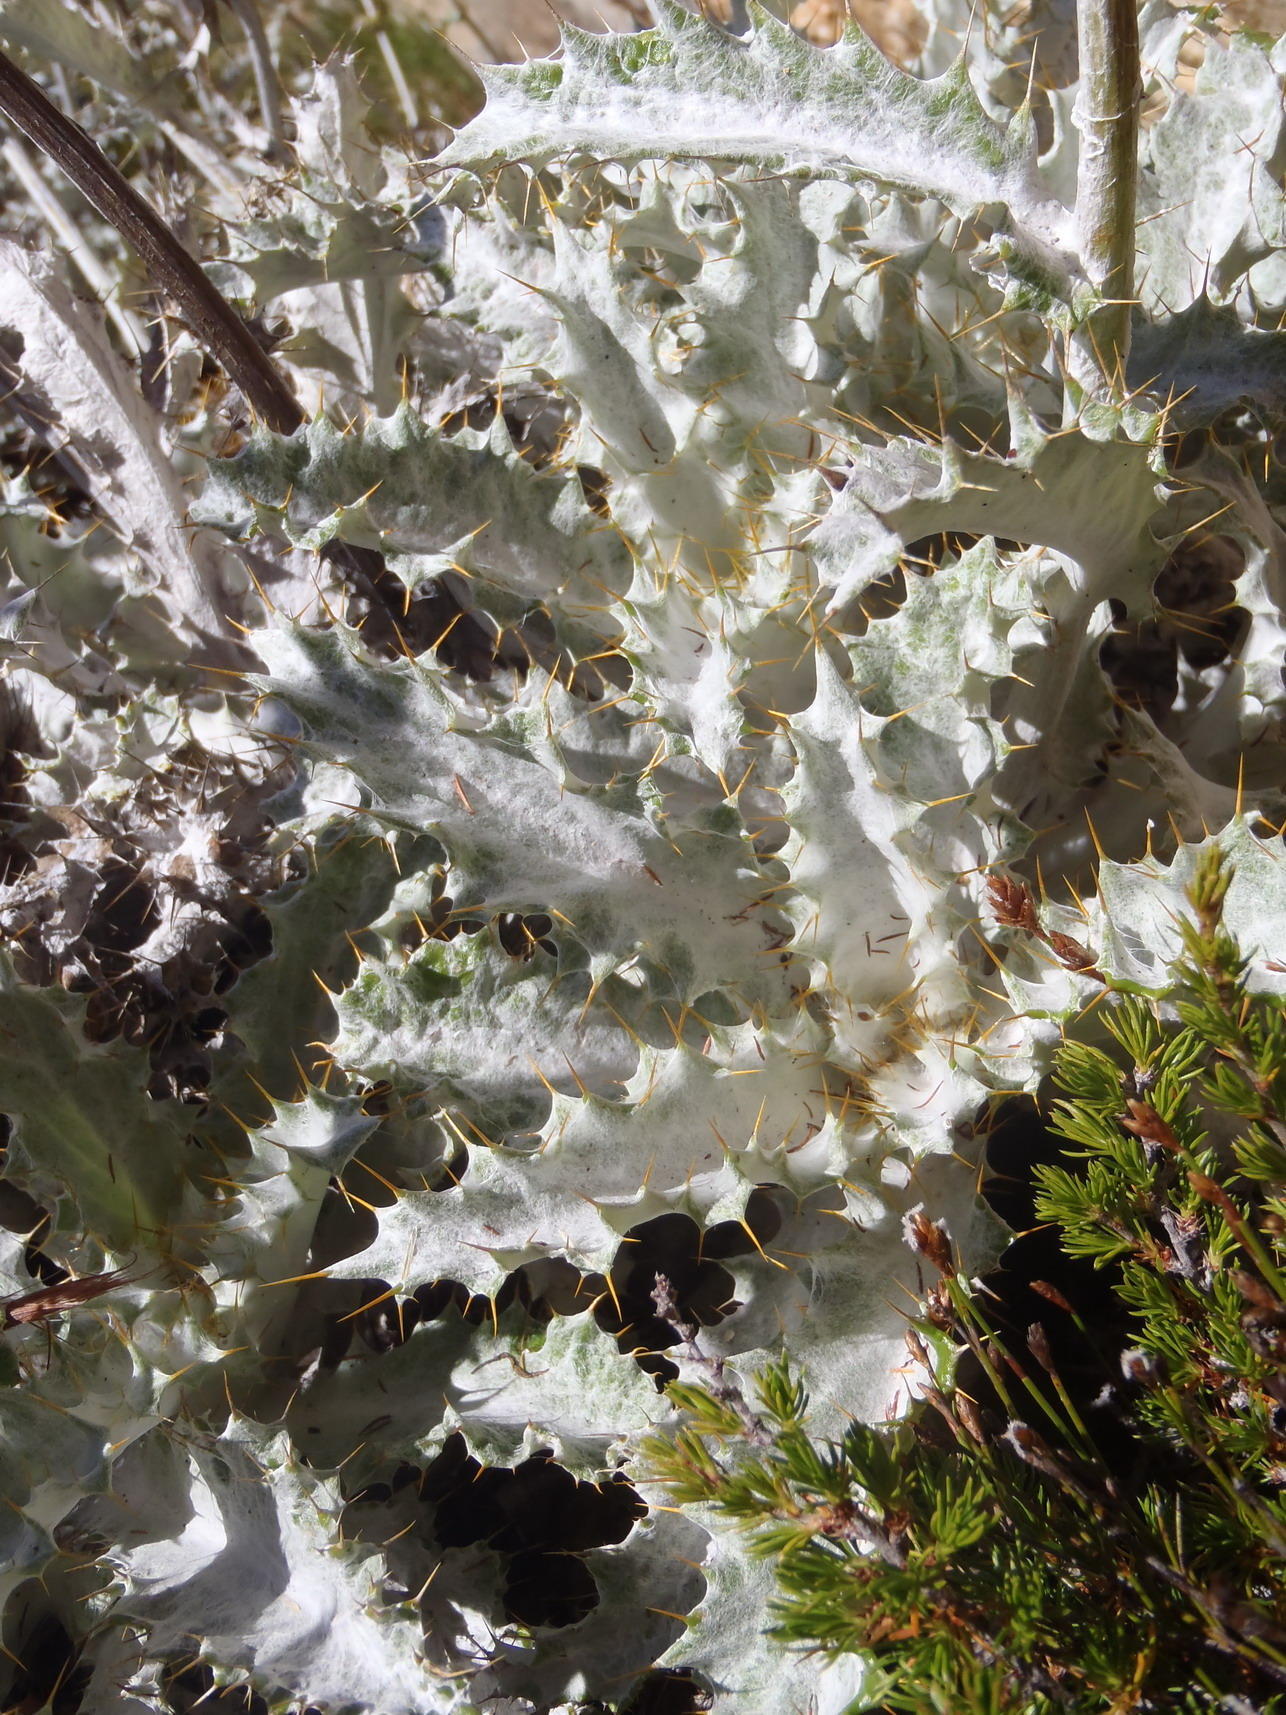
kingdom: Plantae
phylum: Tracheophyta
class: Magnoliopsida
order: Asterales
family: Asteraceae
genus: Berkheya
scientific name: Berkheya francisci
